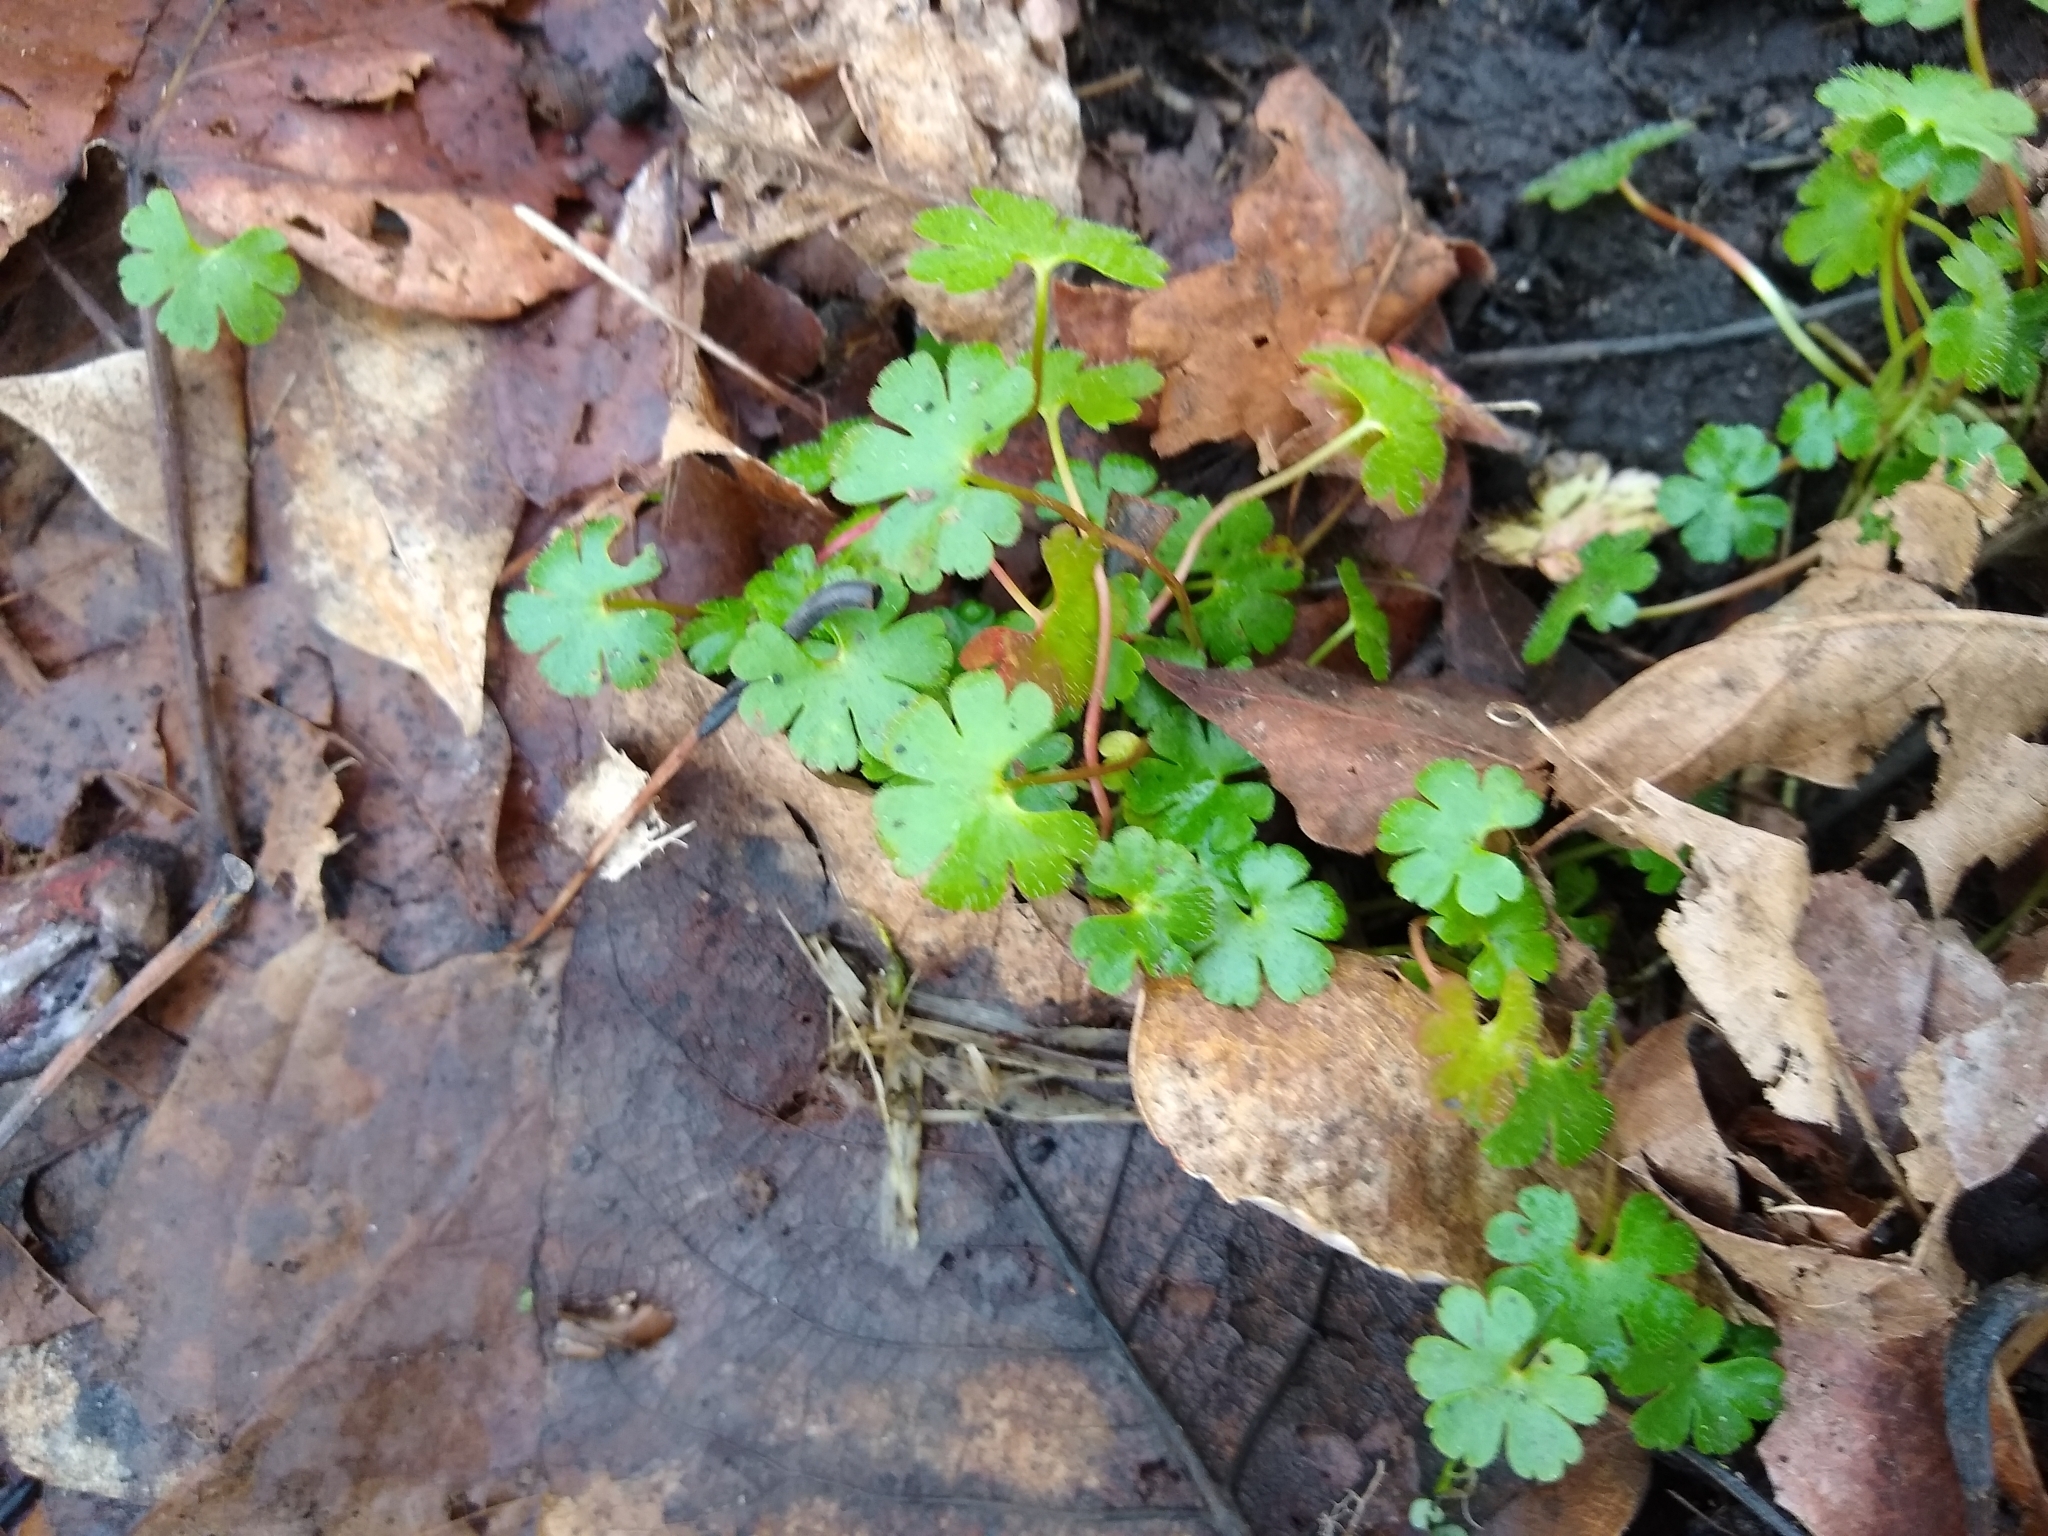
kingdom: Plantae
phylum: Tracheophyta
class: Magnoliopsida
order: Geraniales
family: Geraniaceae
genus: Geranium
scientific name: Geranium lucidum
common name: Shining crane's-bill
